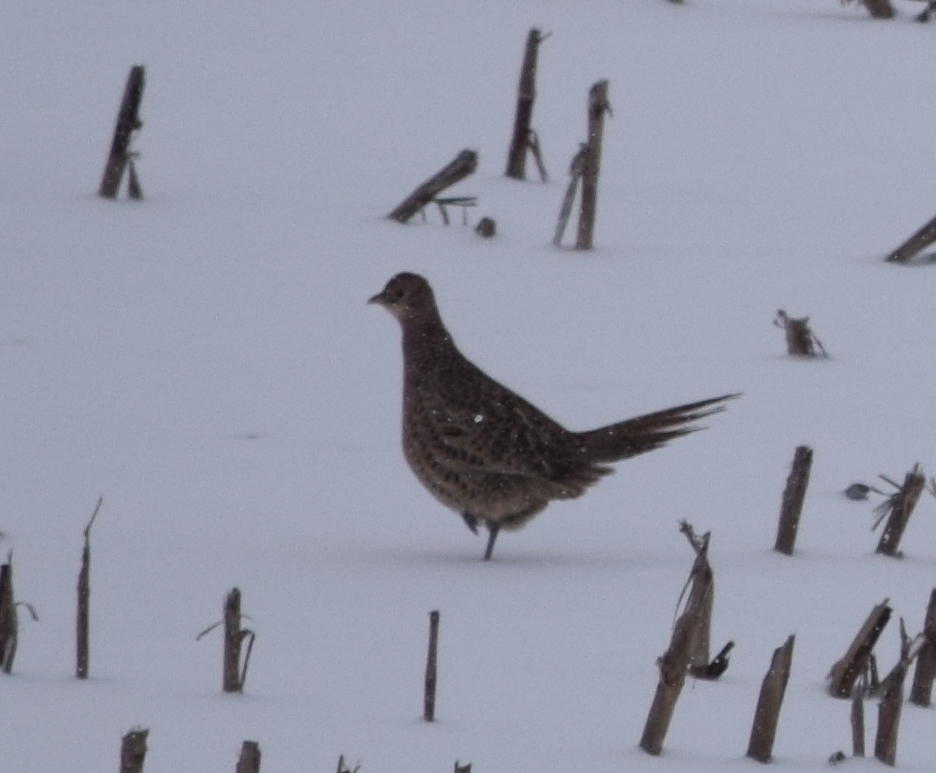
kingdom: Animalia
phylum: Chordata
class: Aves
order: Galliformes
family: Phasianidae
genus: Phasianus
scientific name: Phasianus colchicus
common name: Common pheasant
